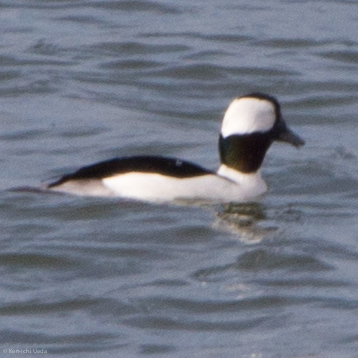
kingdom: Animalia
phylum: Chordata
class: Aves
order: Anseriformes
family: Anatidae
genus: Bucephala
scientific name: Bucephala albeola
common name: Bufflehead
